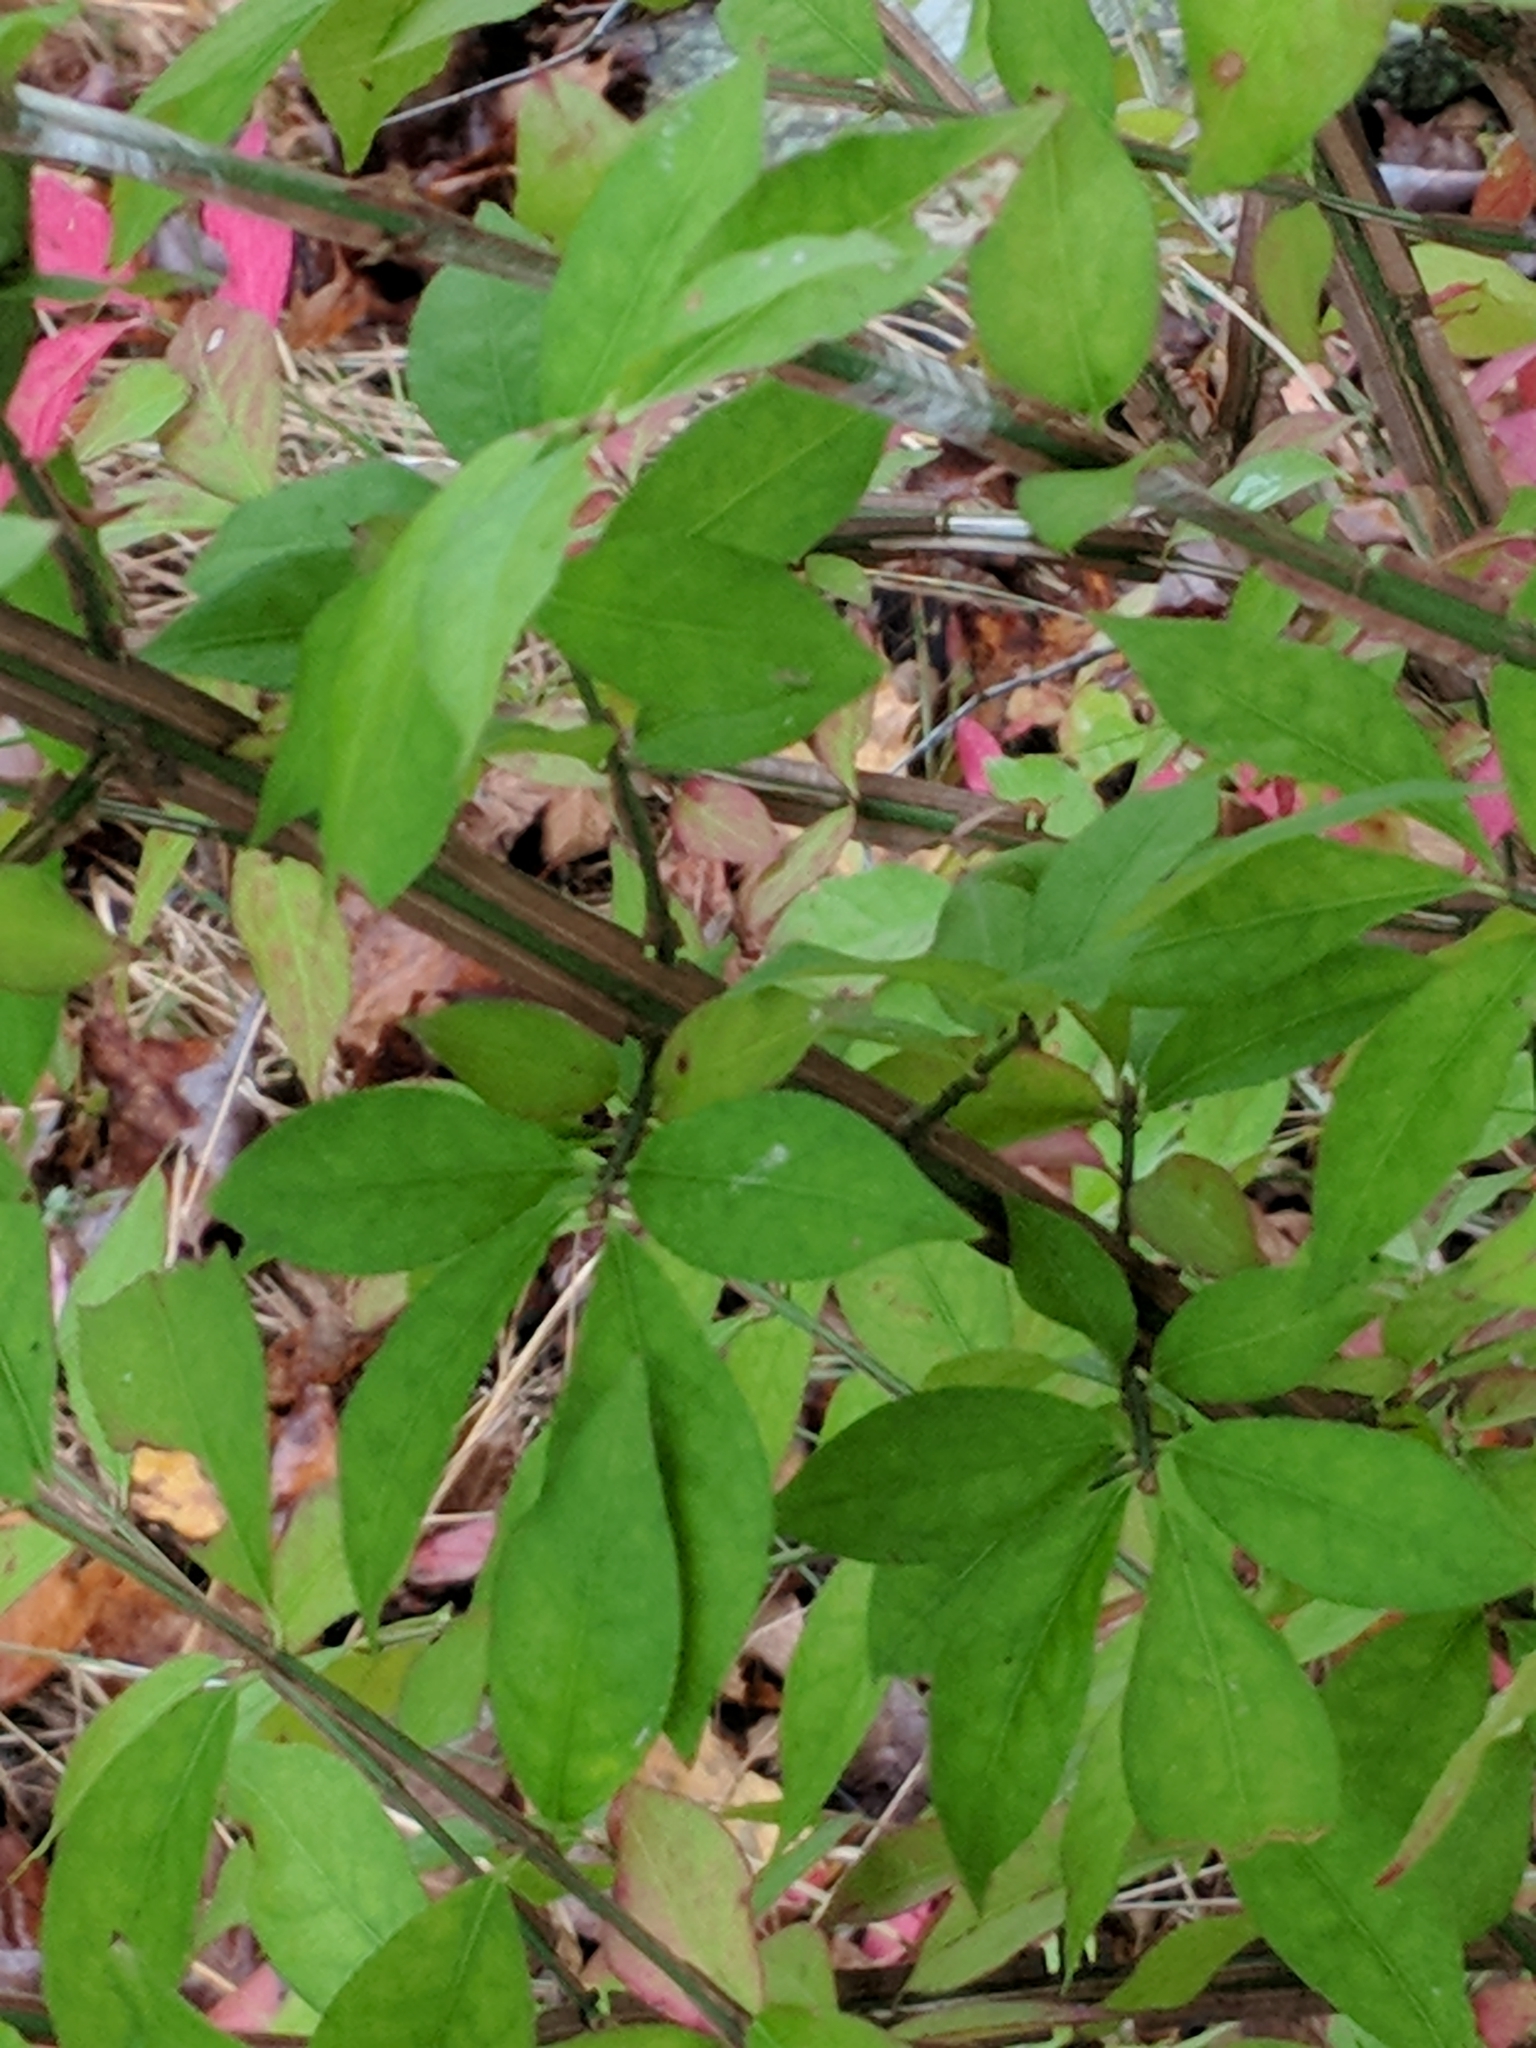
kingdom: Plantae
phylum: Tracheophyta
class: Magnoliopsida
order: Celastrales
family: Celastraceae
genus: Euonymus
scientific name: Euonymus alatus
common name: Winged euonymus
